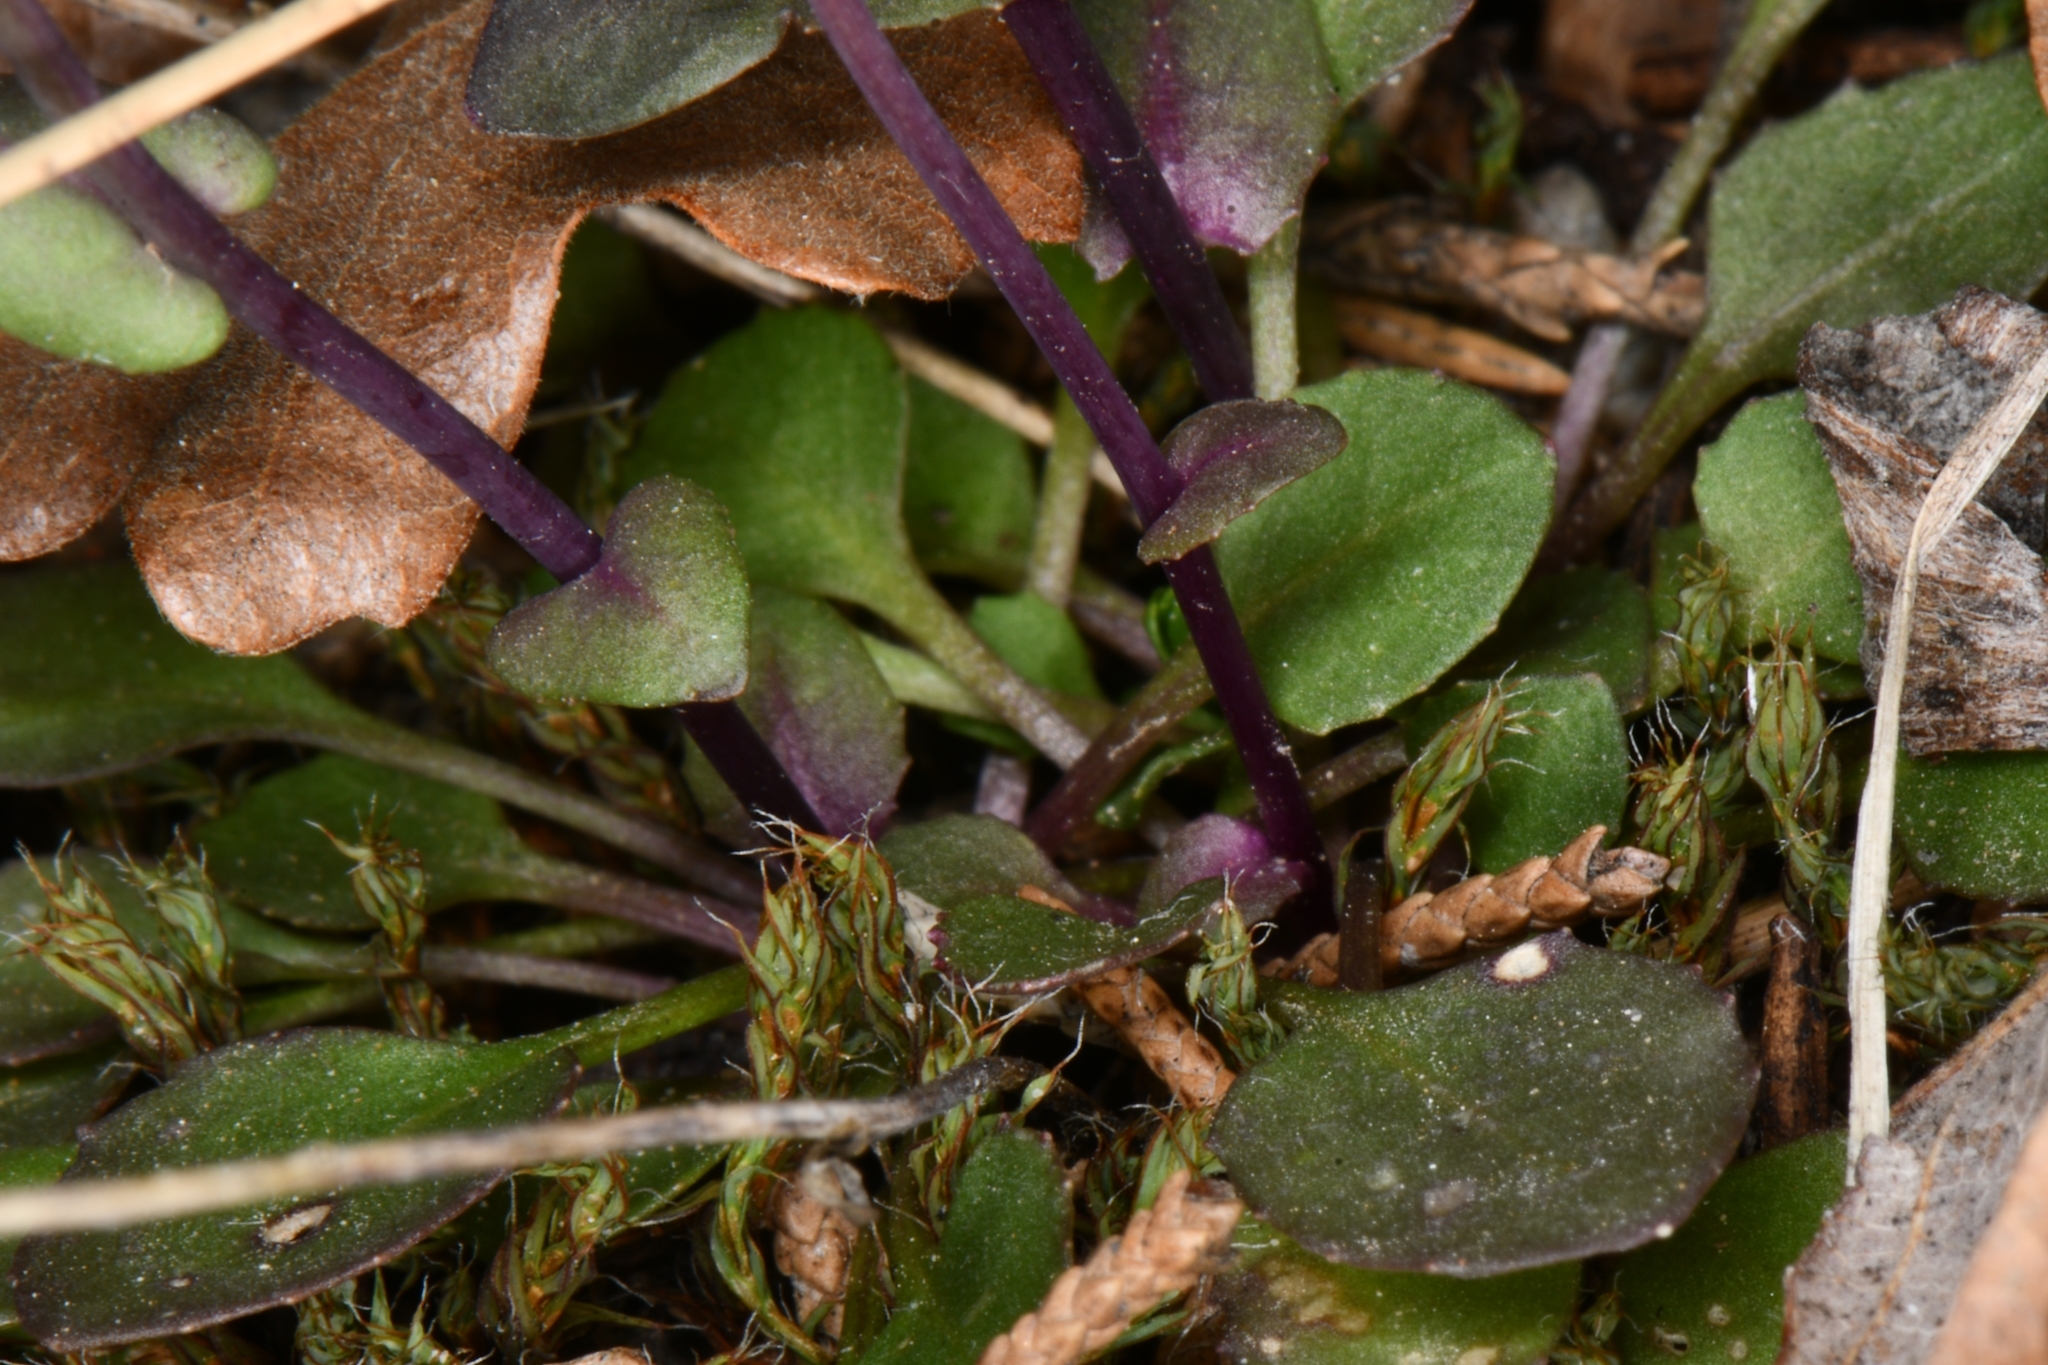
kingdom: Plantae
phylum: Tracheophyta
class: Magnoliopsida
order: Brassicales
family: Brassicaceae
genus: Noccaea
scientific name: Noccaea fendleri
